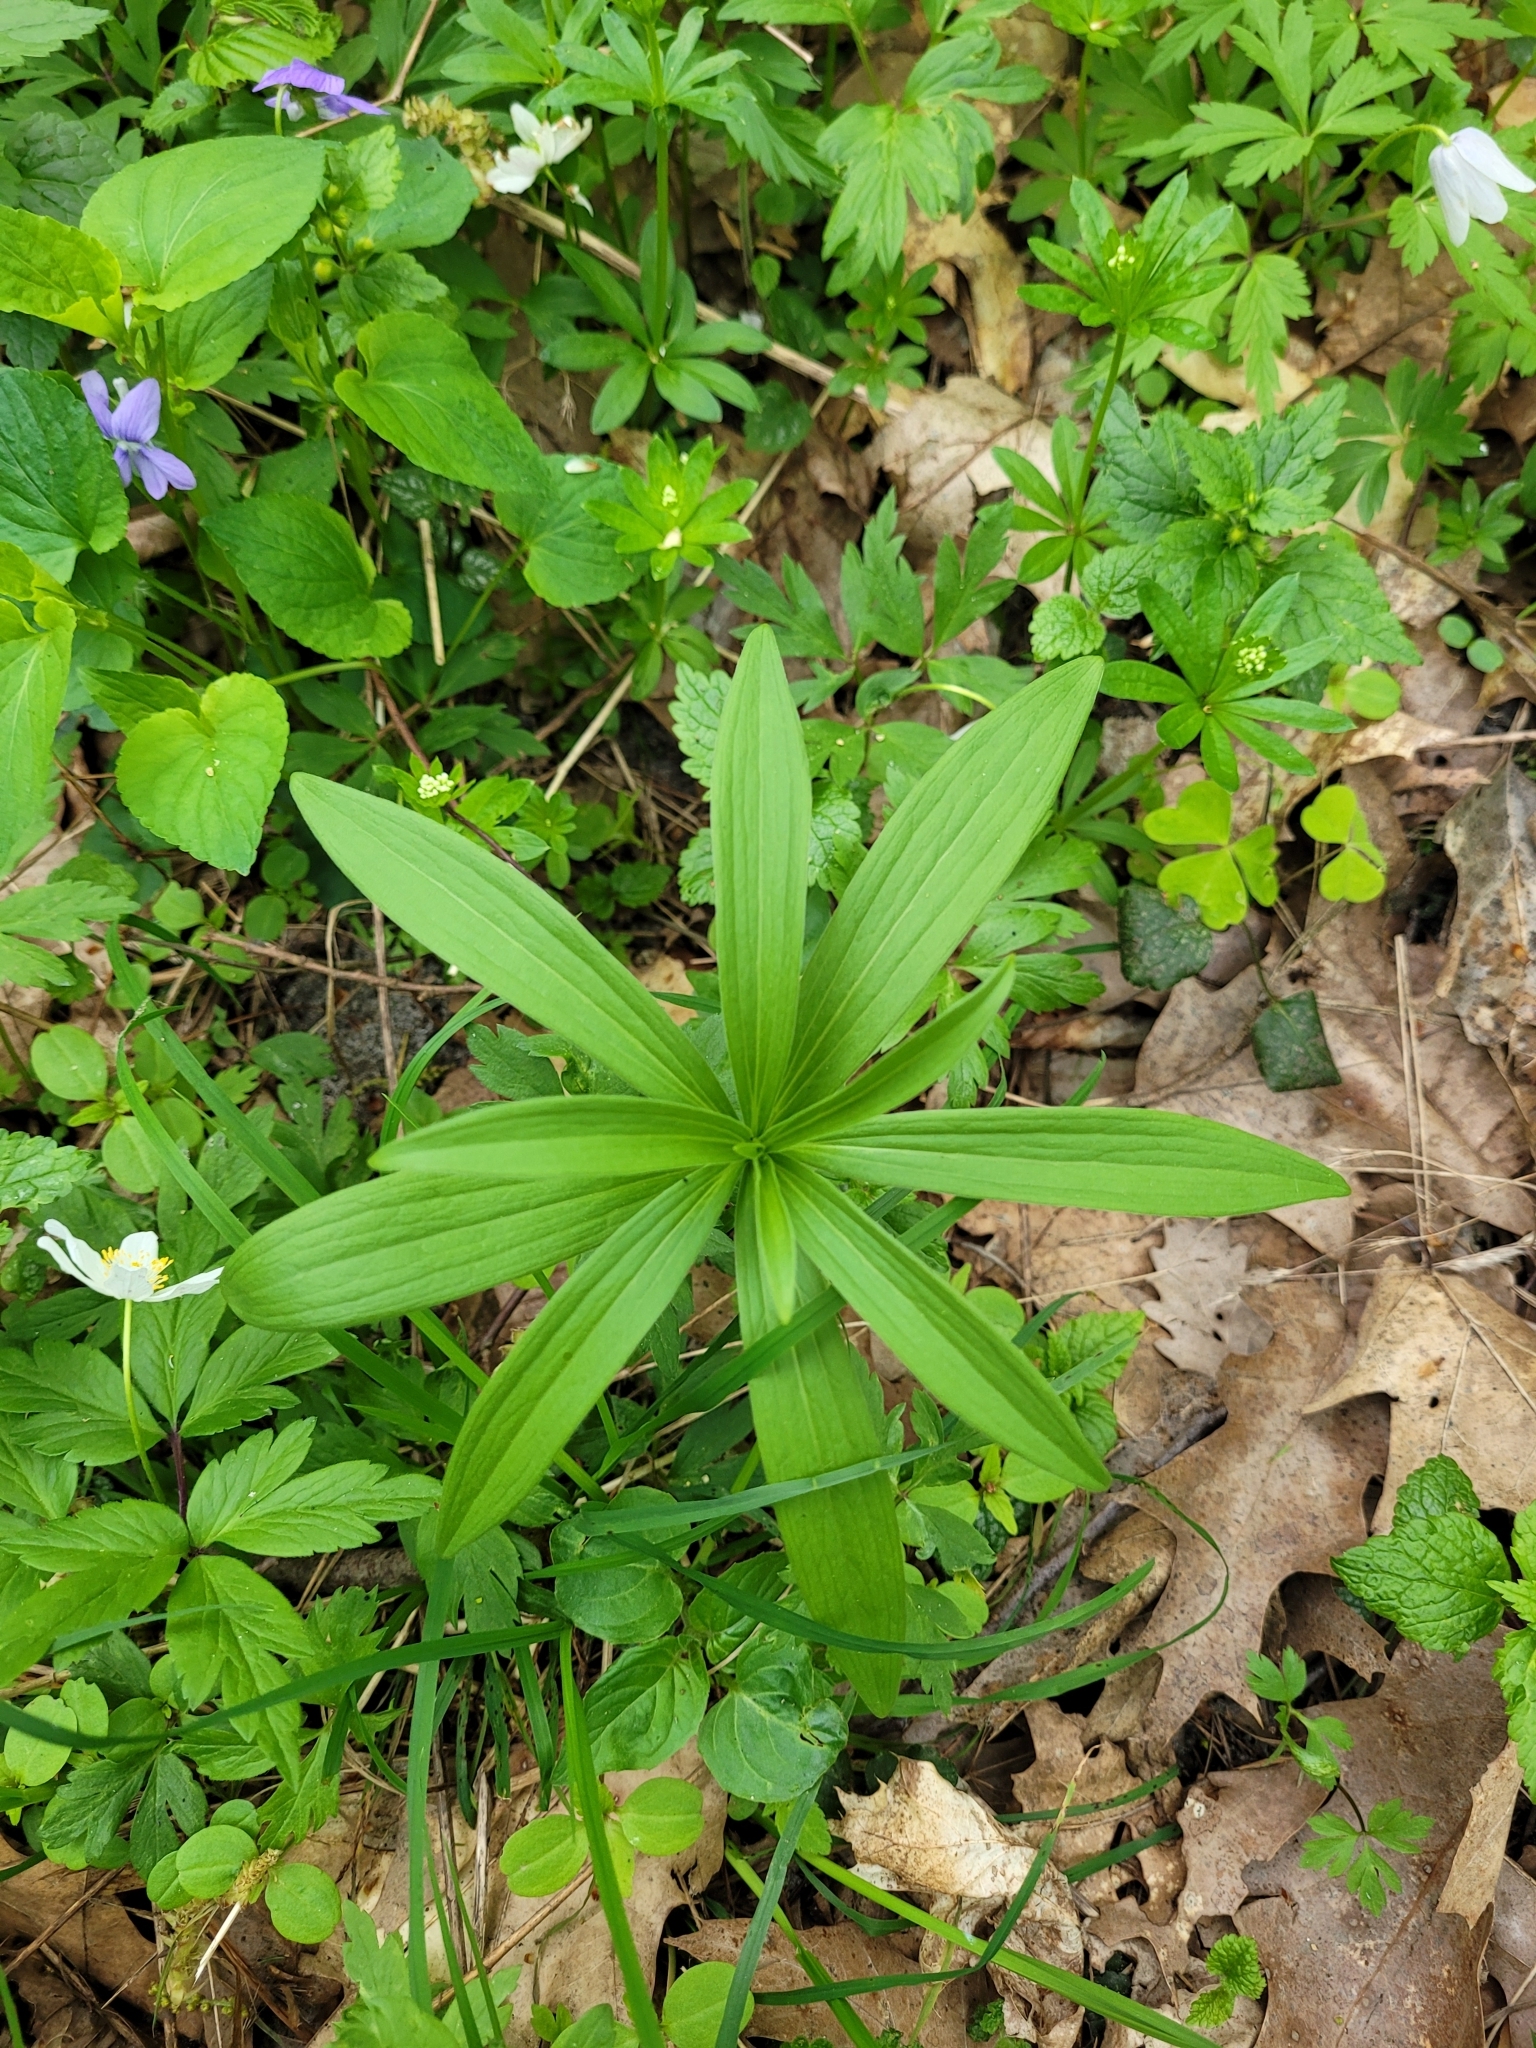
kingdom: Plantae
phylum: Tracheophyta
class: Liliopsida
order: Liliales
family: Liliaceae
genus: Lilium
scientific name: Lilium martagon
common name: Martagon lily
